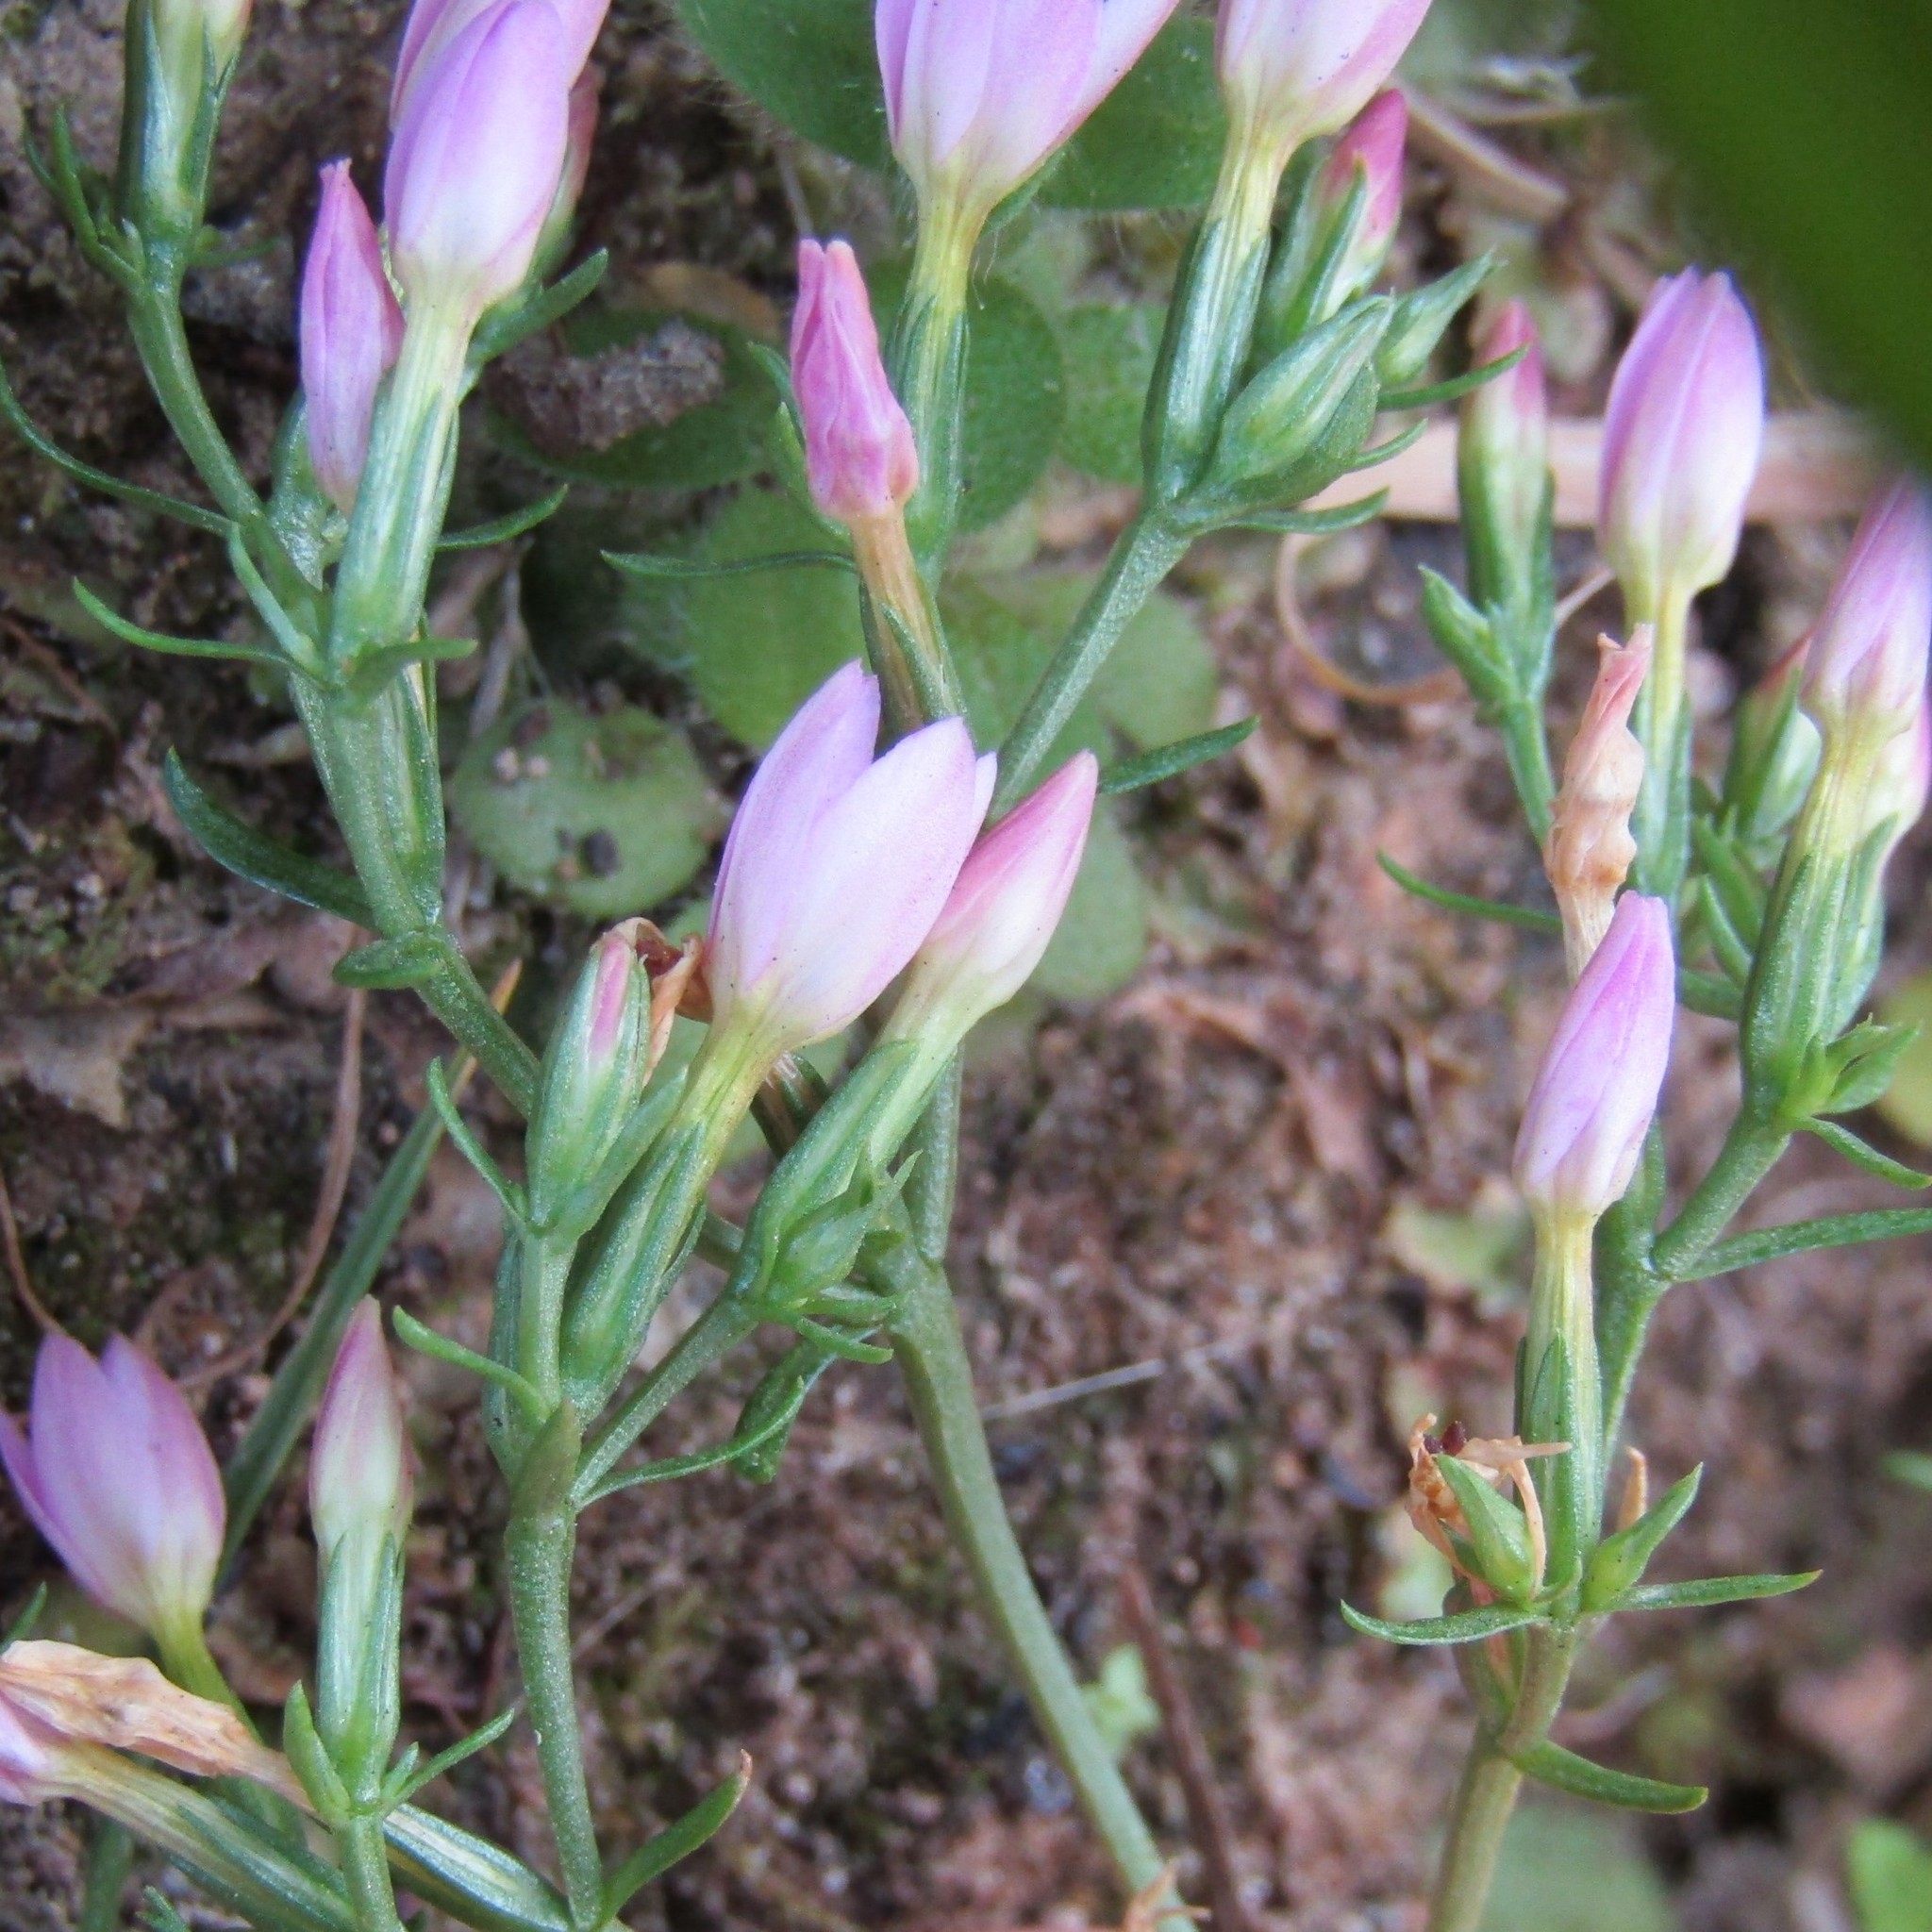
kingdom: Plantae
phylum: Tracheophyta
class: Magnoliopsida
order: Gentianales
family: Gentianaceae
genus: Centaurium
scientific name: Centaurium erythraea
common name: Common centaury
